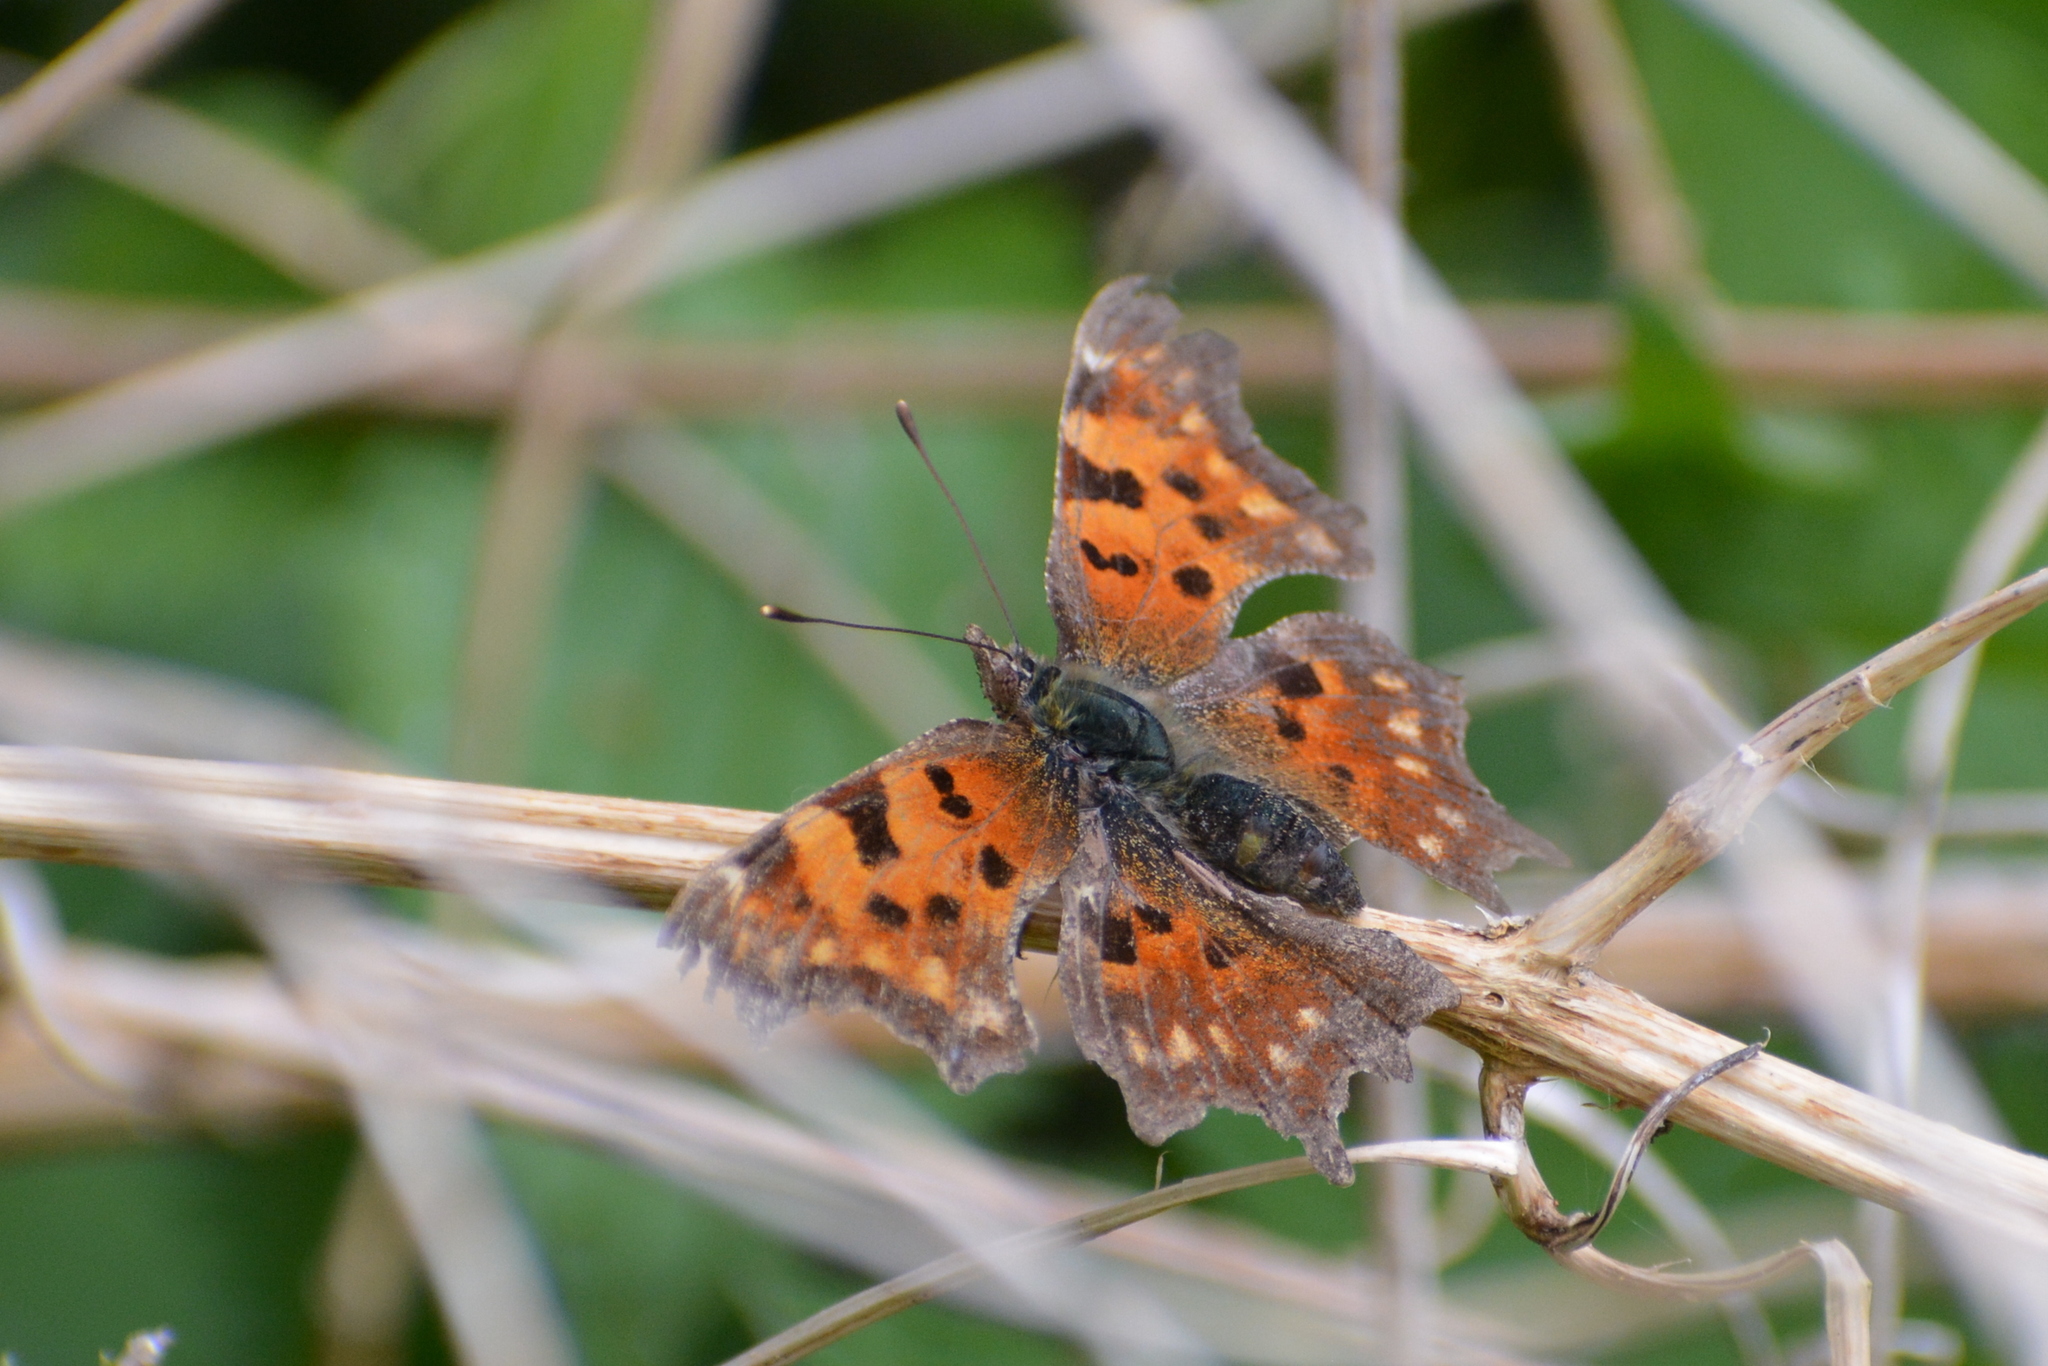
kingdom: Animalia
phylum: Arthropoda
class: Insecta
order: Lepidoptera
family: Nymphalidae
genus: Polygonia
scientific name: Polygonia c-album
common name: Comma
